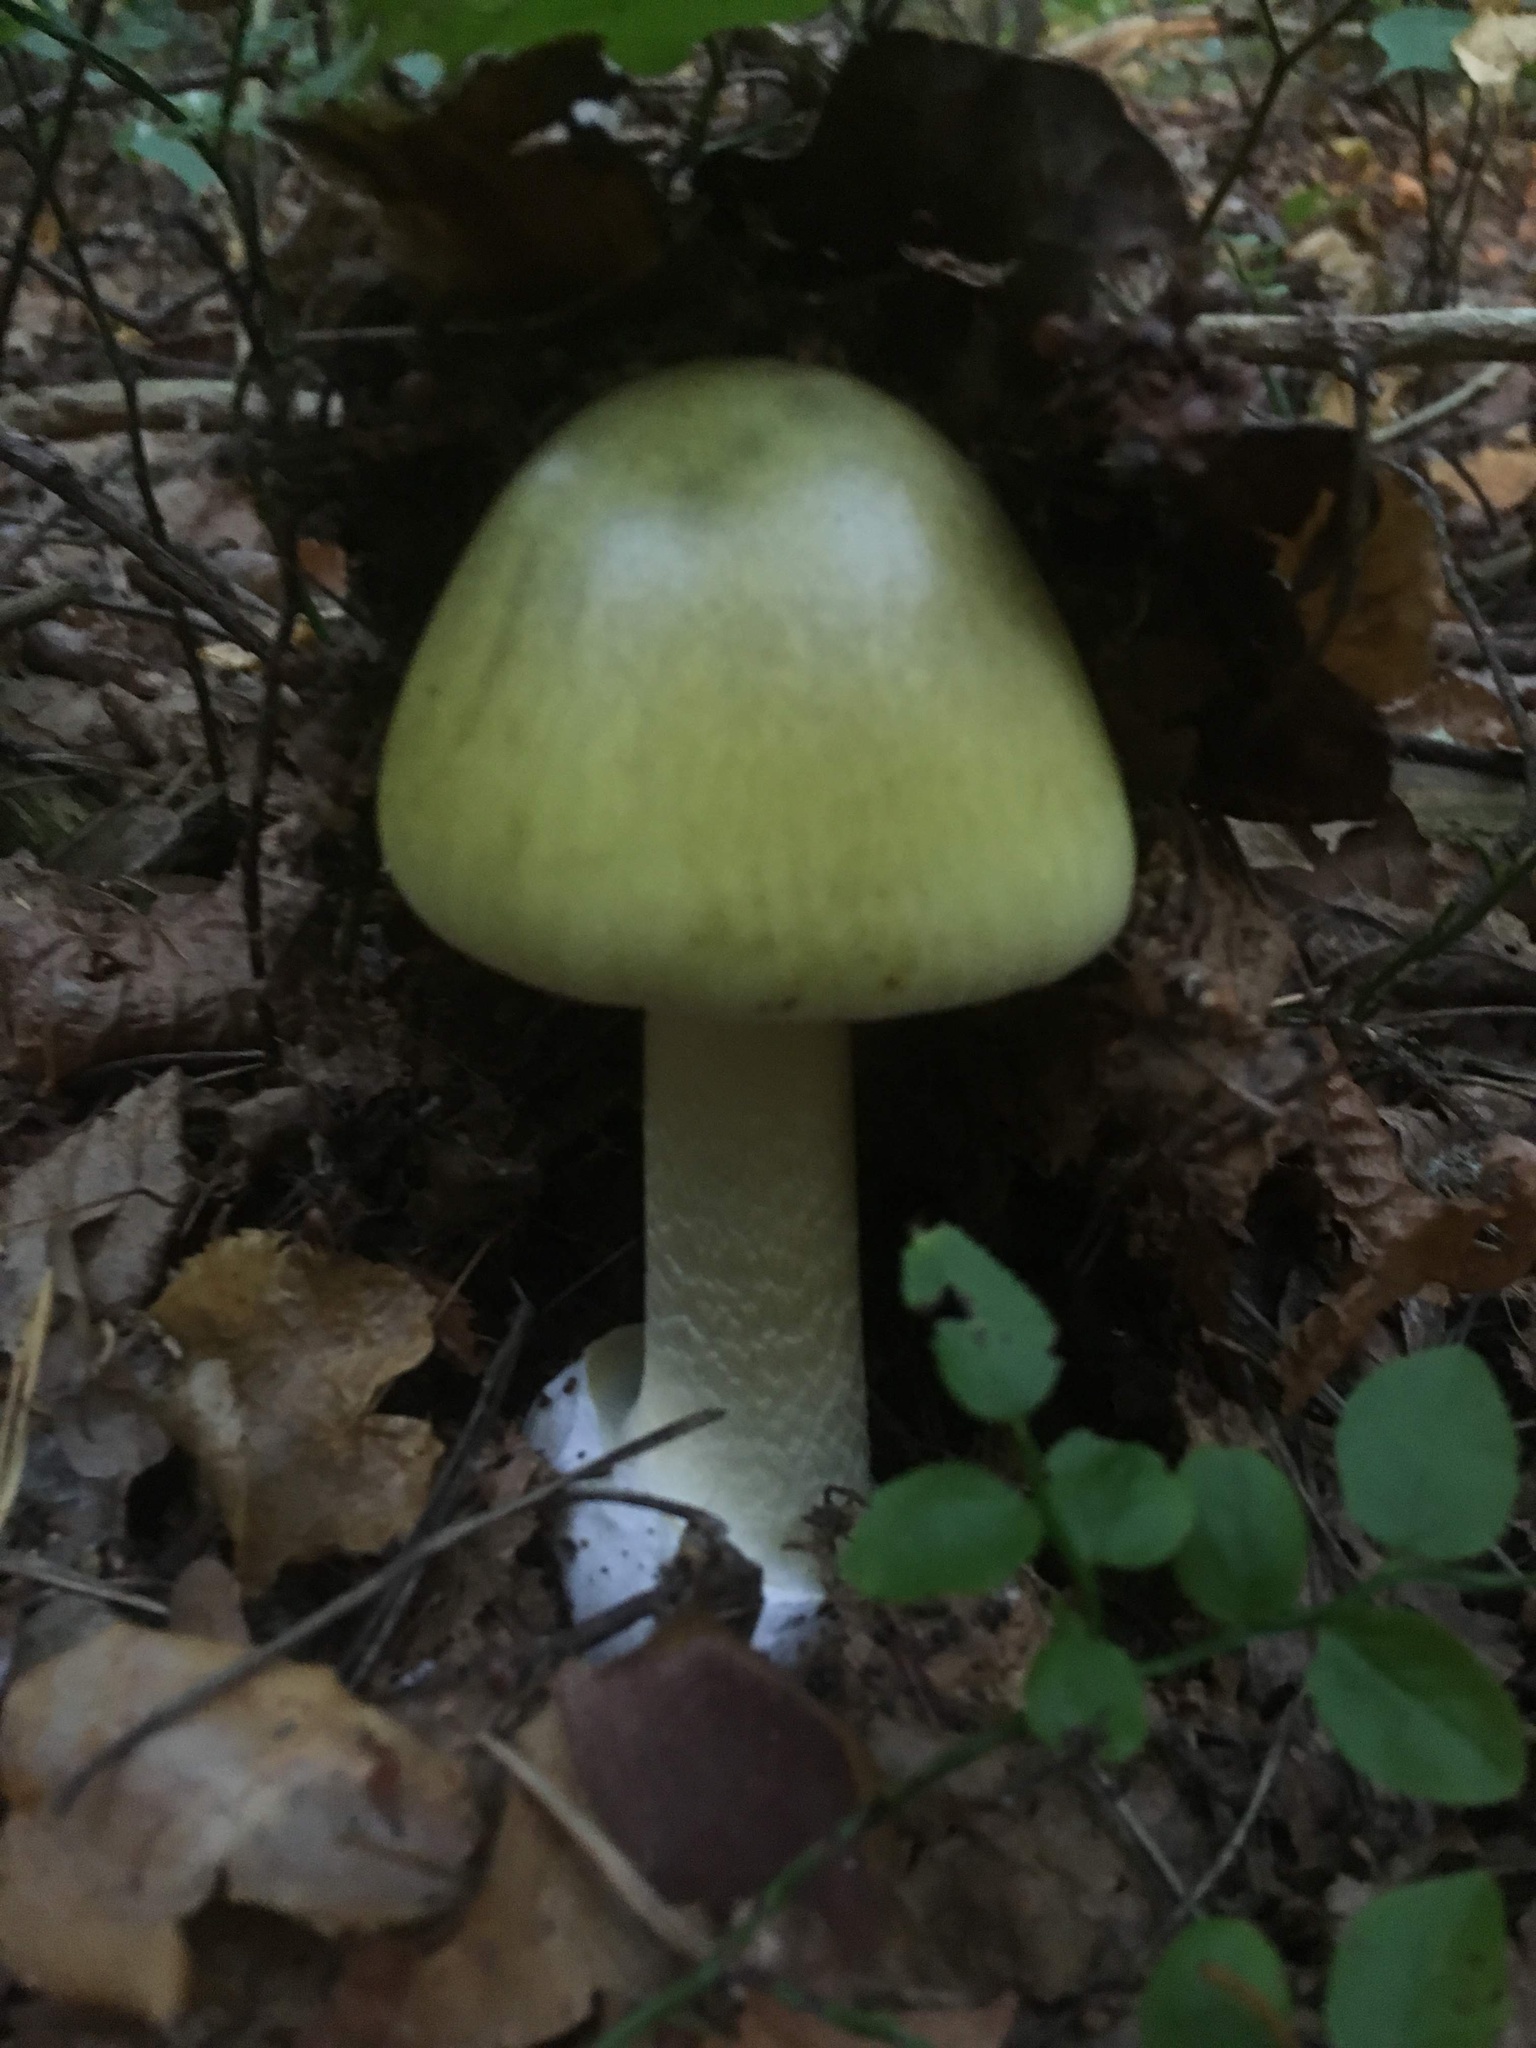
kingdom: Fungi
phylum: Basidiomycota
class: Agaricomycetes
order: Agaricales
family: Amanitaceae
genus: Amanita
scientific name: Amanita phalloides
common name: Death cap
